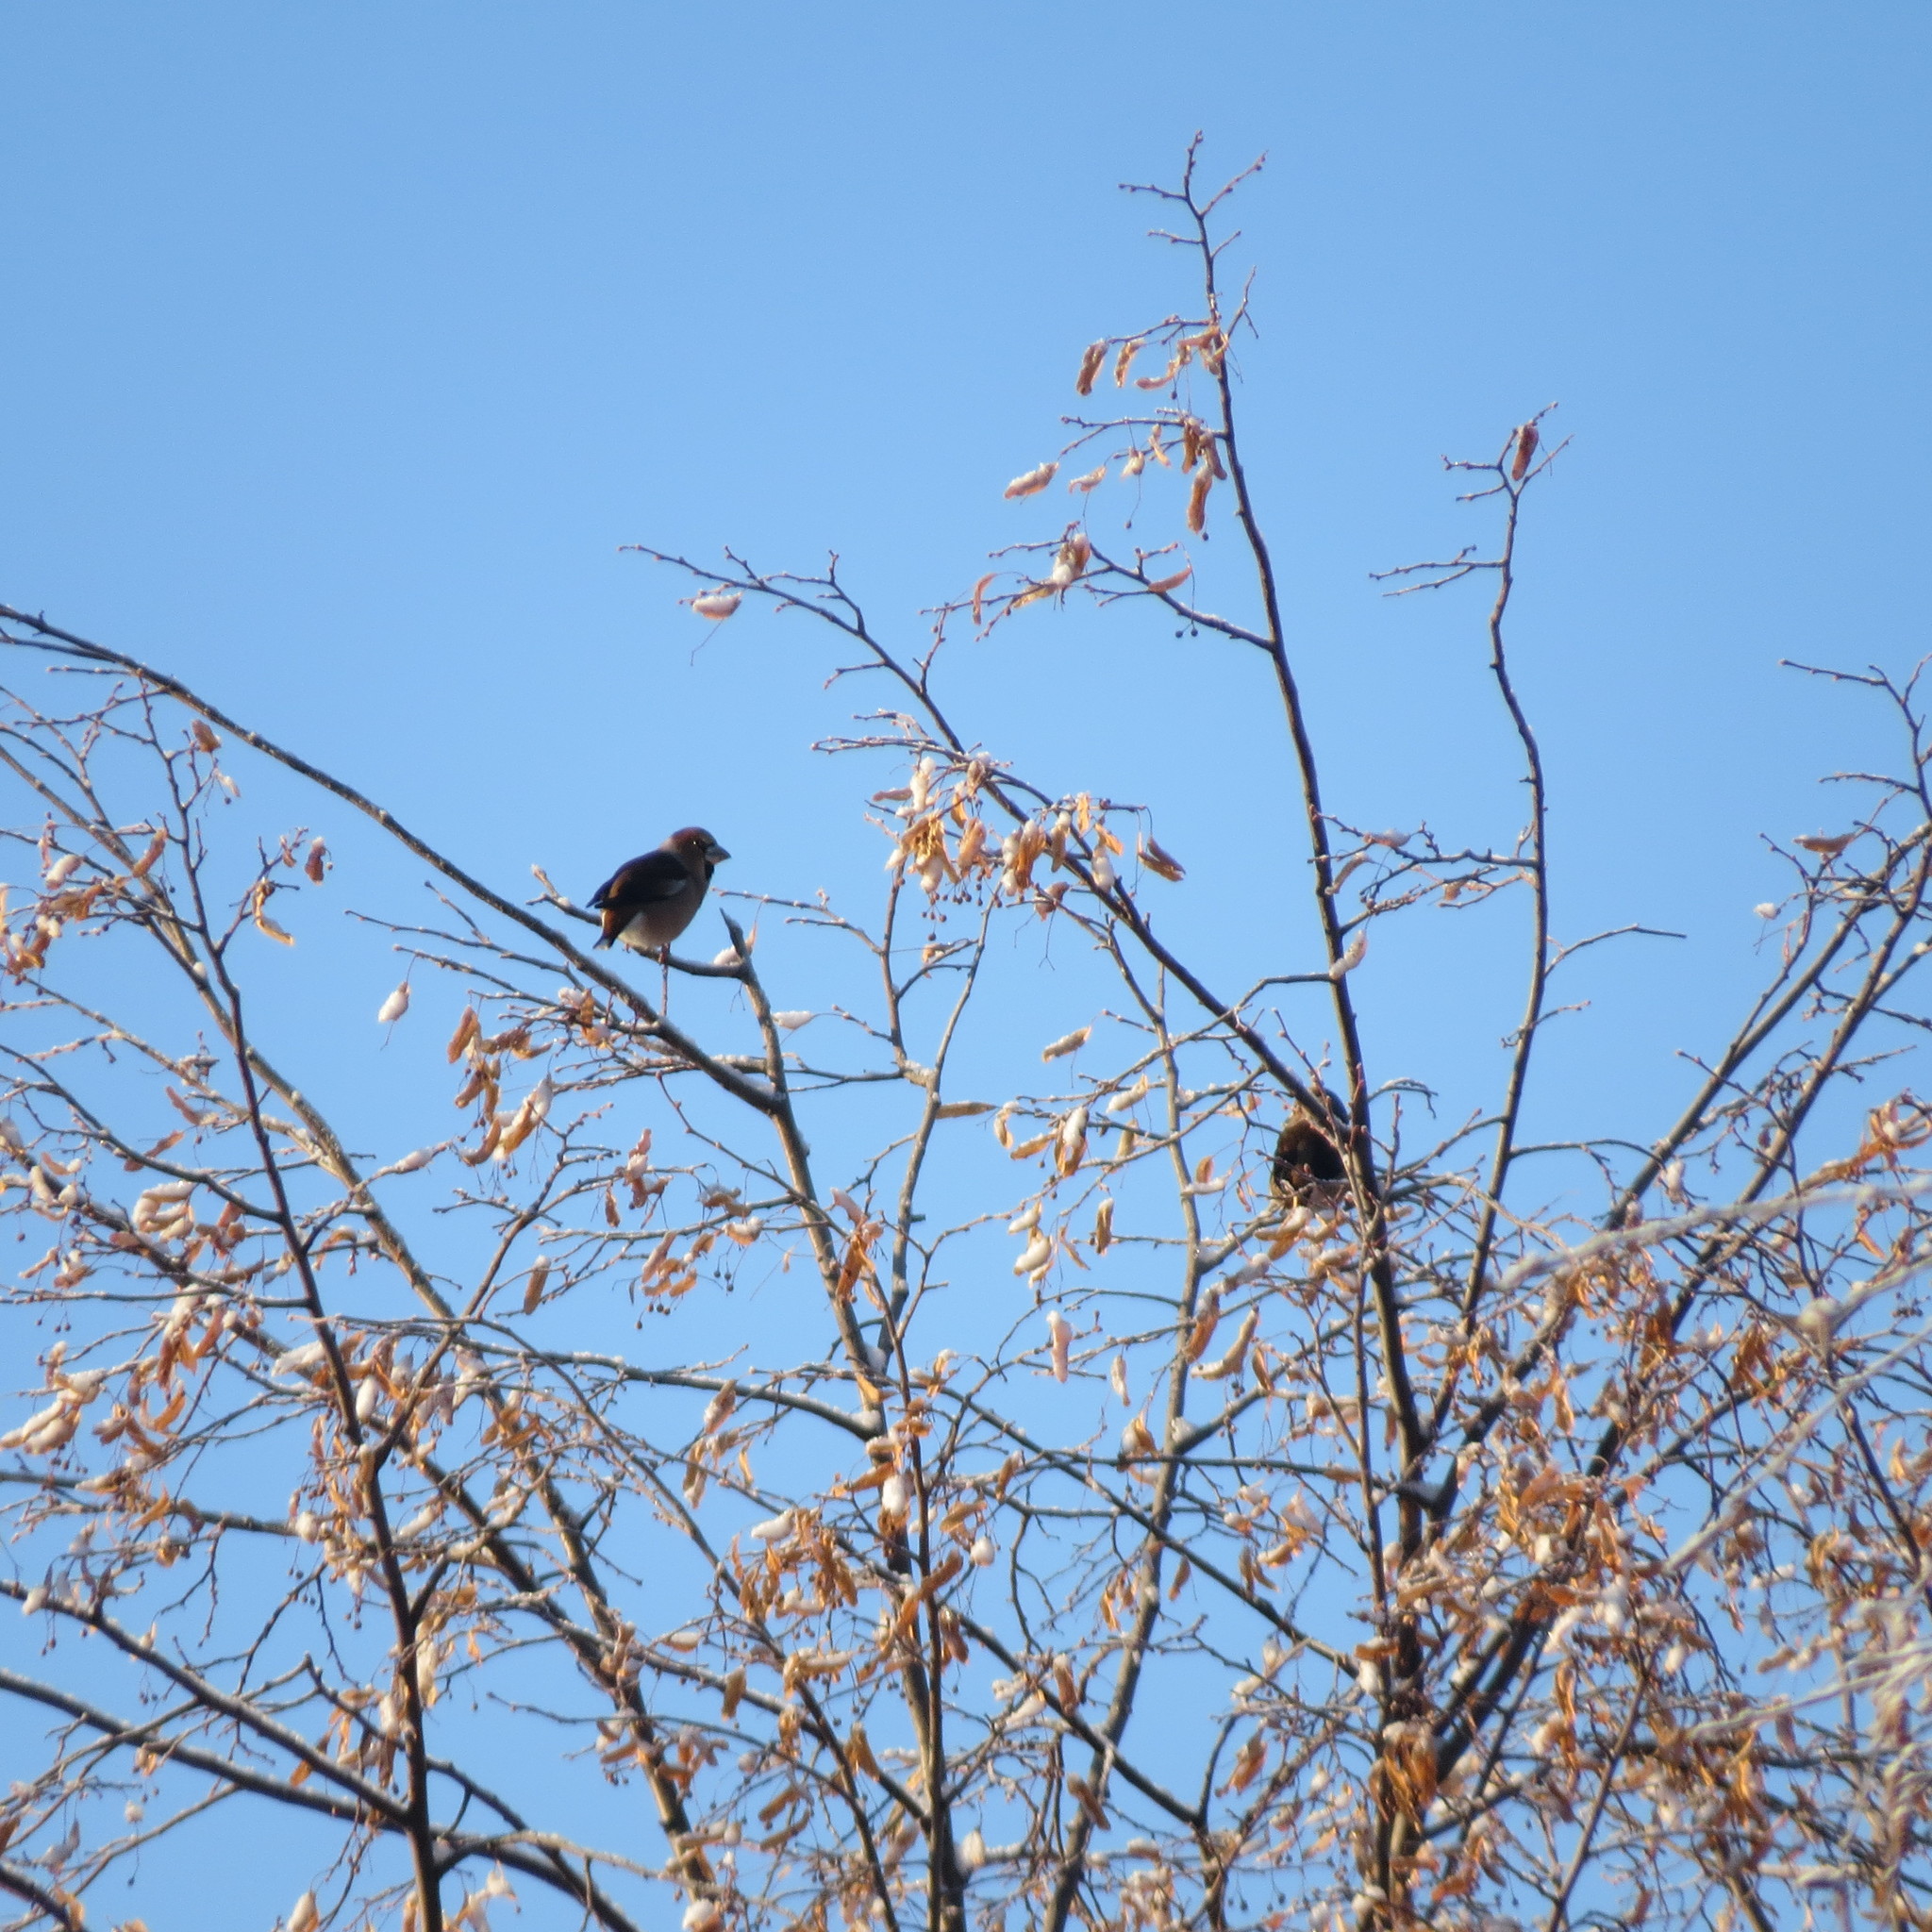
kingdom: Animalia
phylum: Chordata
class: Aves
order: Passeriformes
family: Fringillidae
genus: Coccothraustes
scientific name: Coccothraustes coccothraustes
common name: Hawfinch
